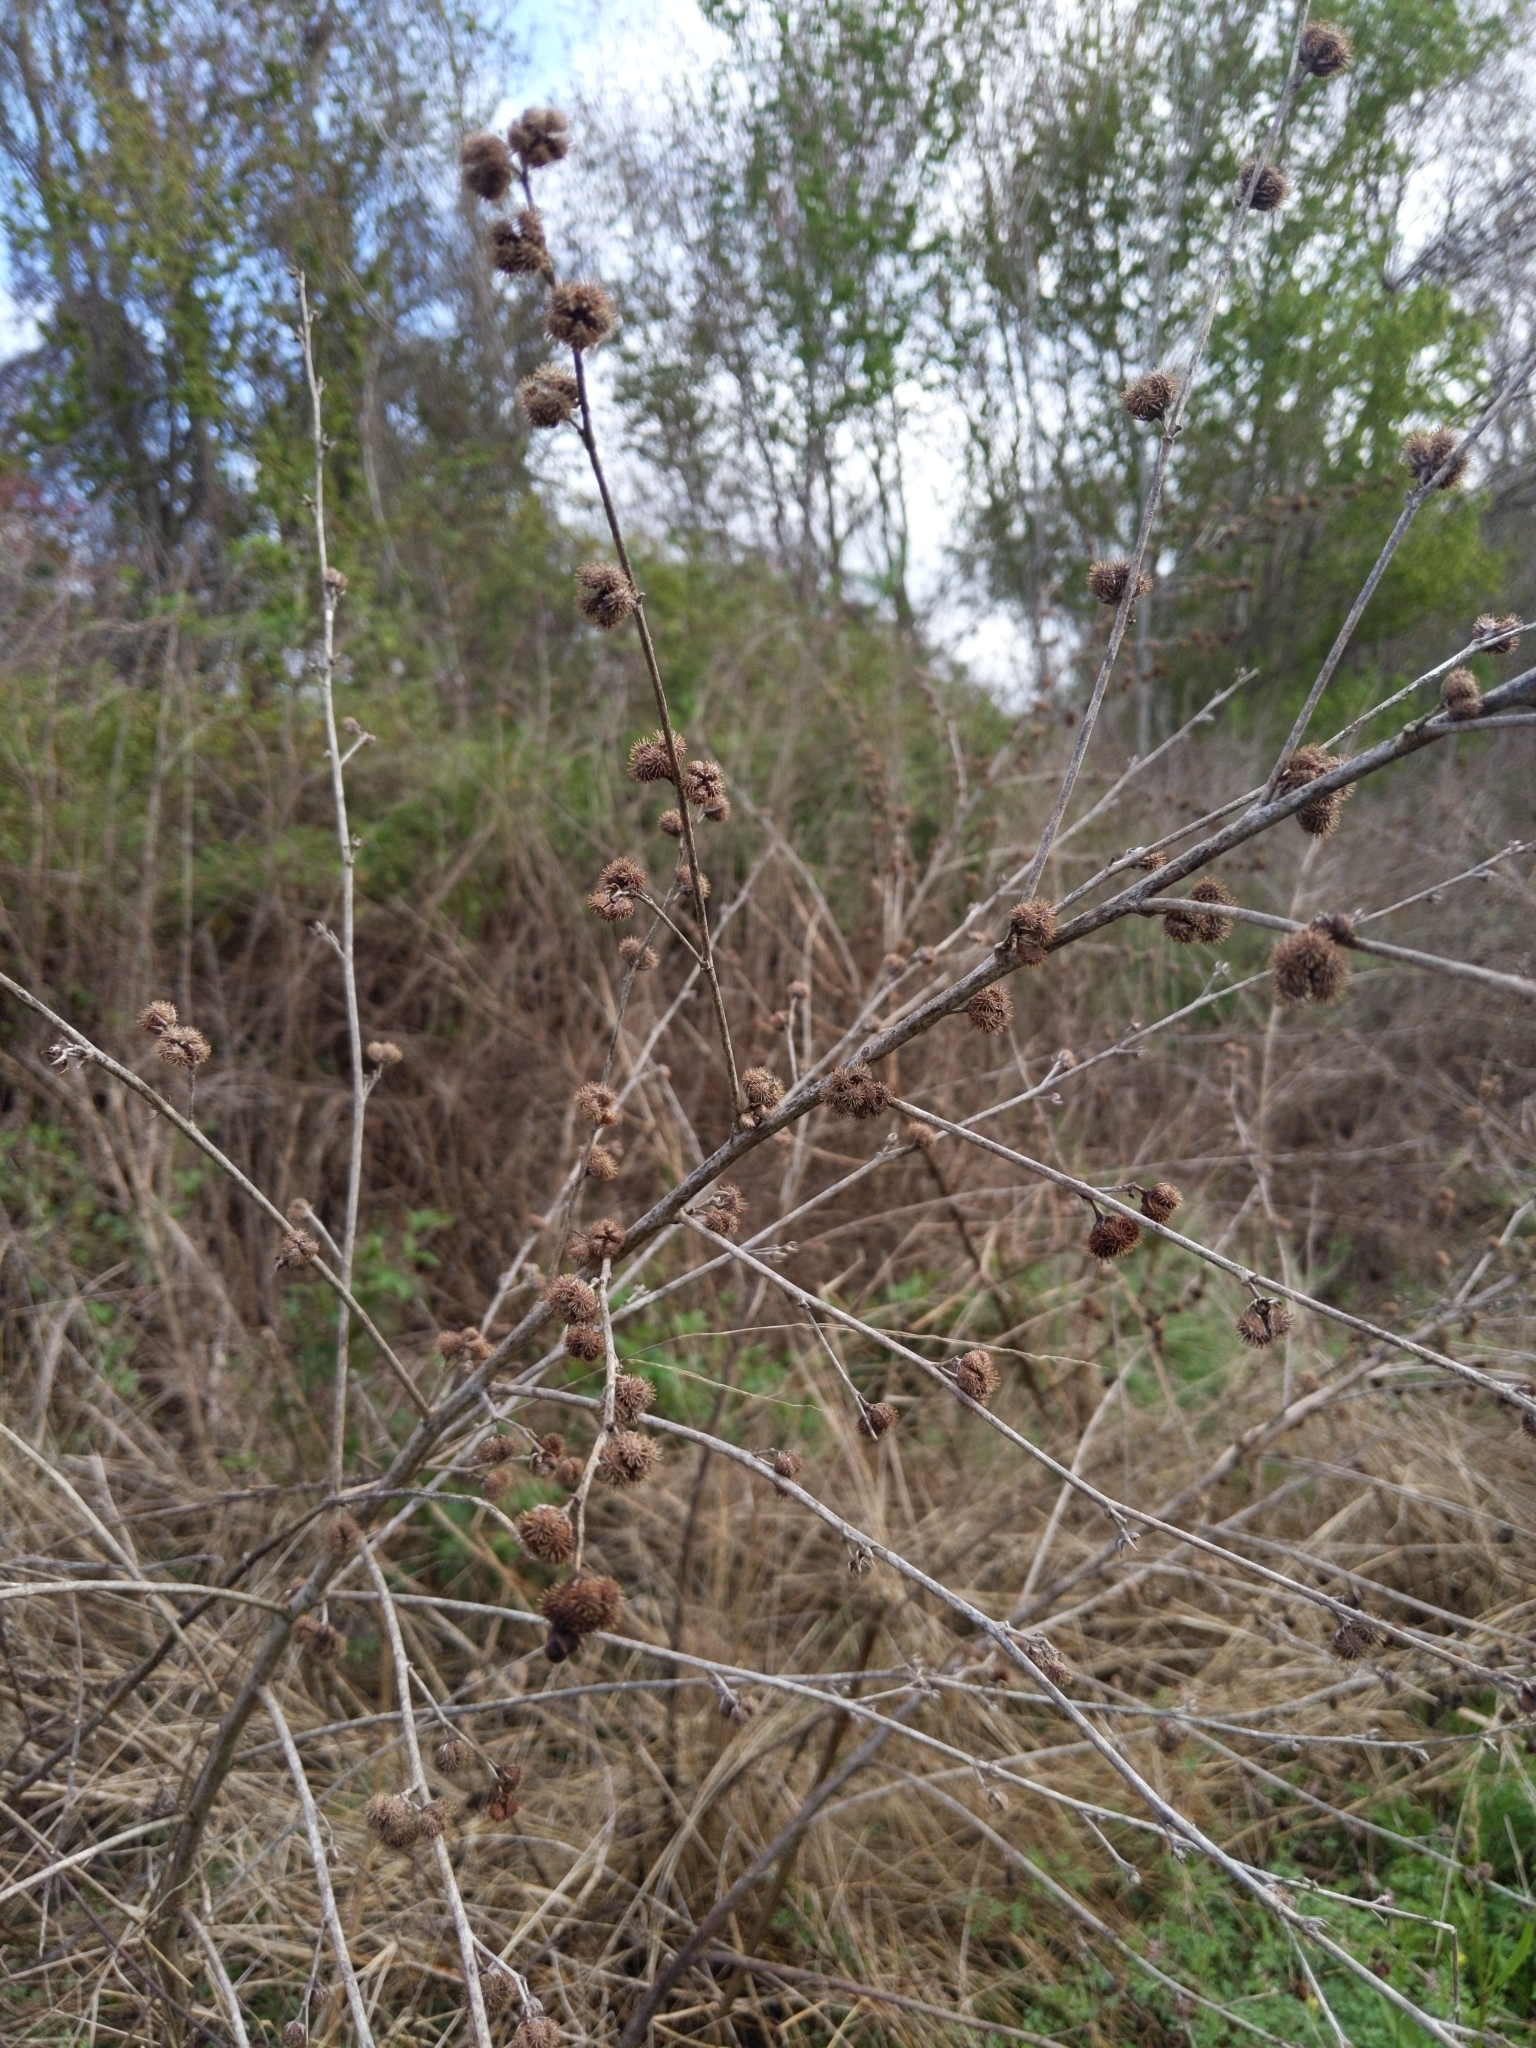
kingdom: Plantae
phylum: Tracheophyta
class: Magnoliopsida
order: Malvales
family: Malvaceae
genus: Urena
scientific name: Urena lobata
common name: Caesarweed
